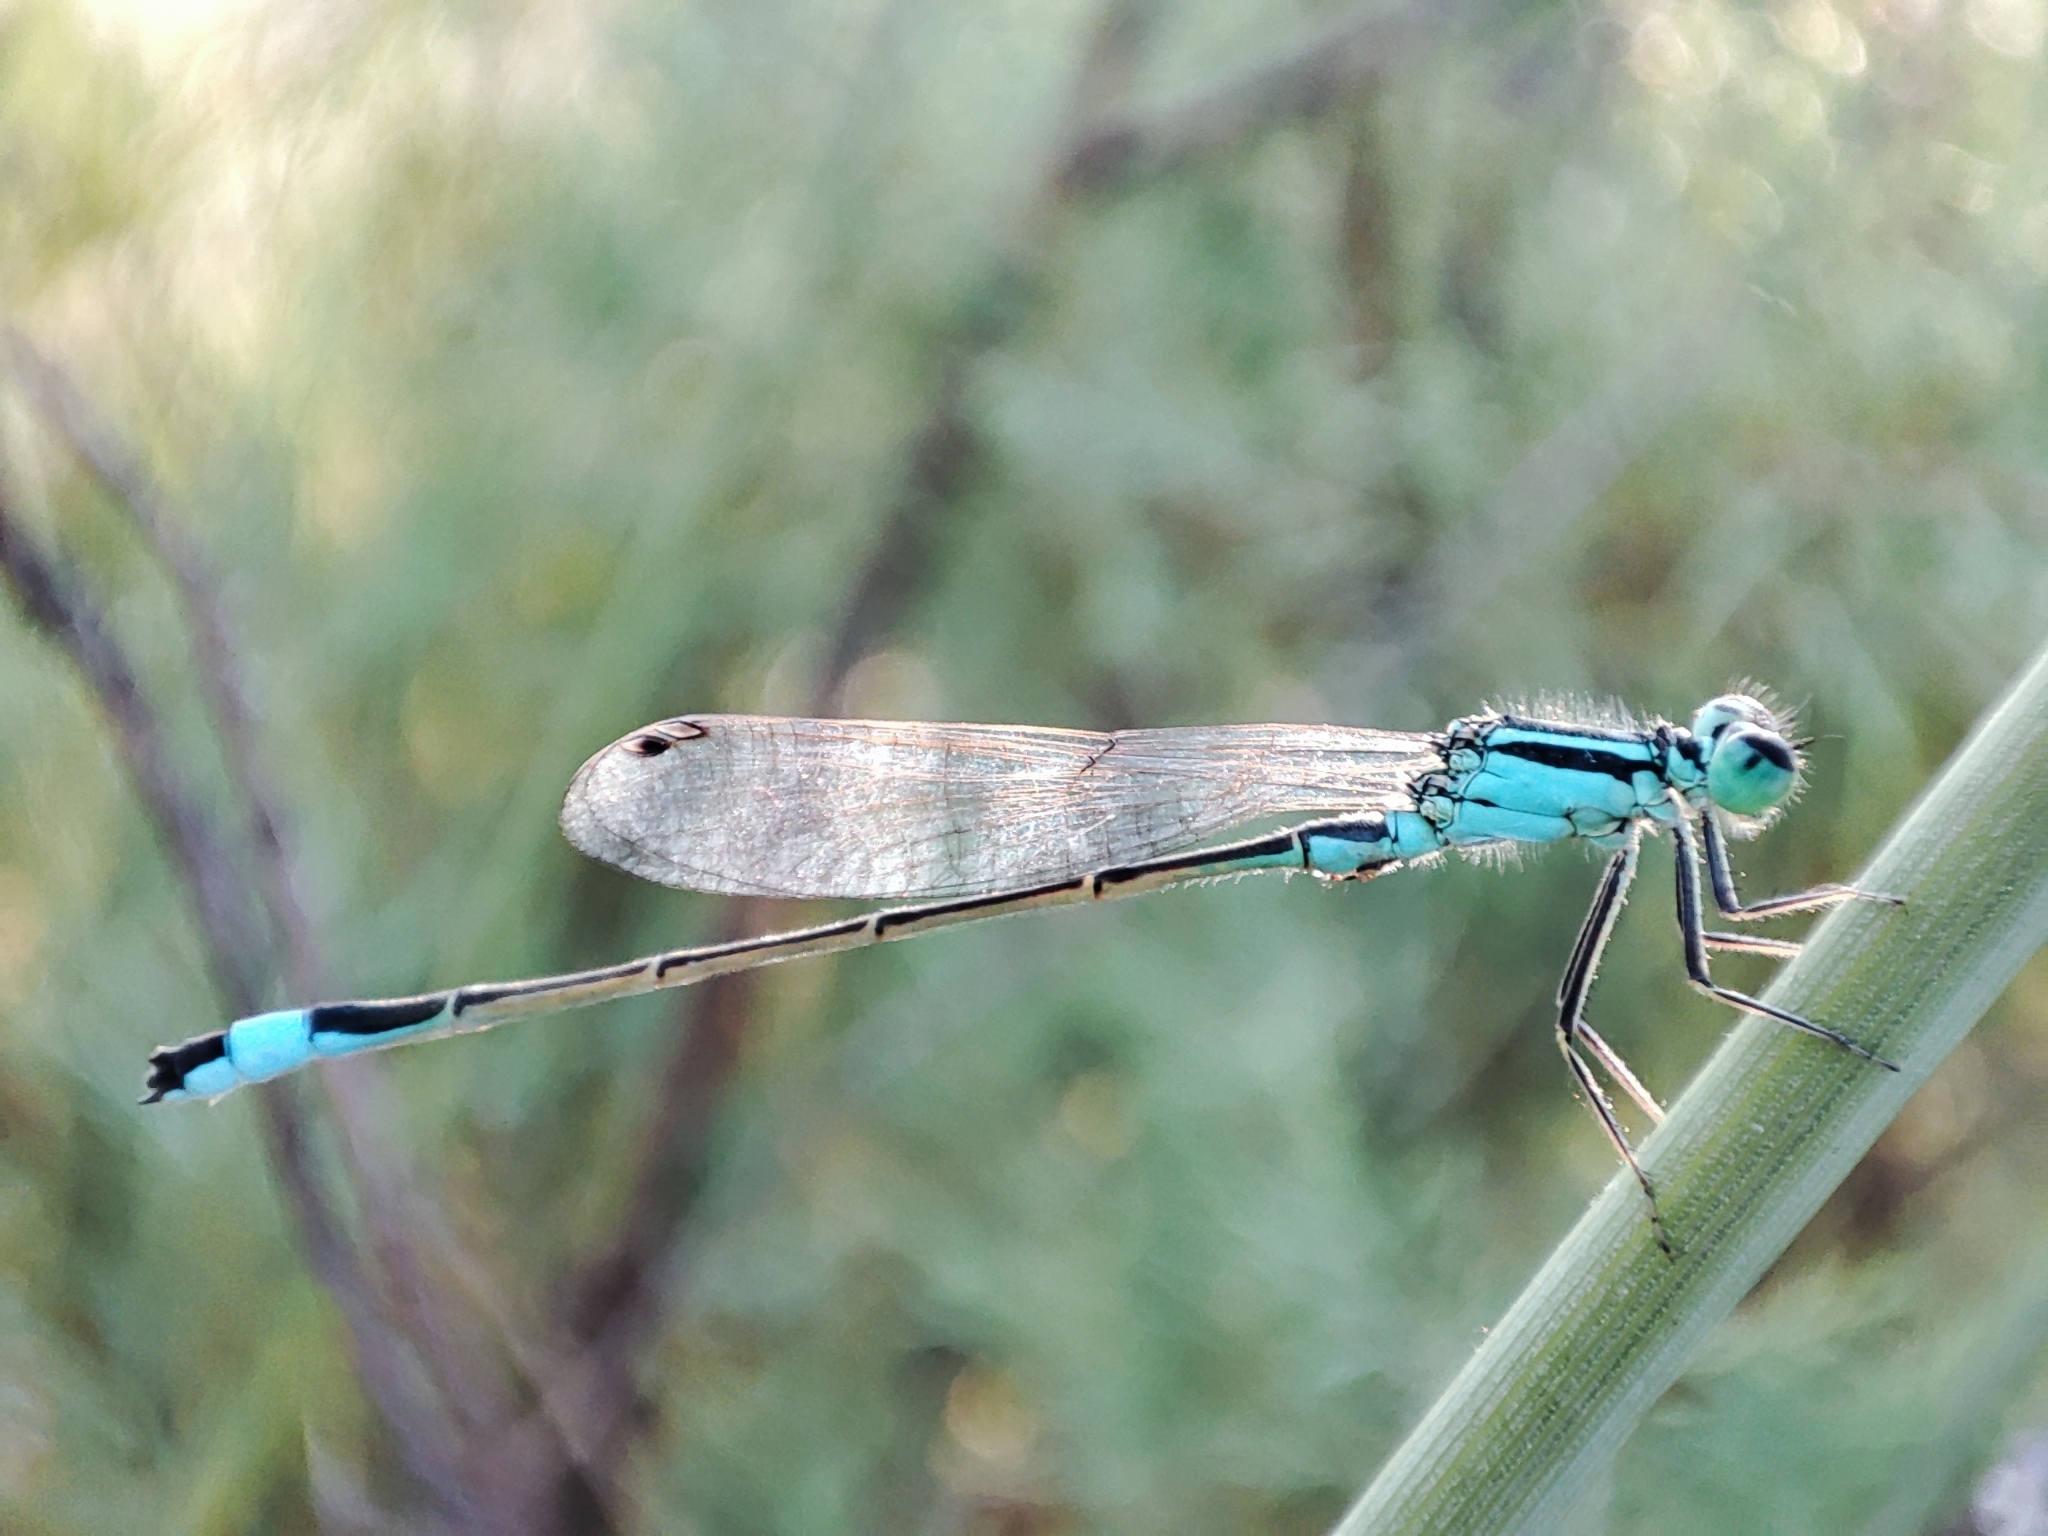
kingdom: Animalia
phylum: Arthropoda
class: Insecta
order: Odonata
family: Coenagrionidae
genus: Ischnura
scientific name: Ischnura elegans
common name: Blue-tailed damselfly
